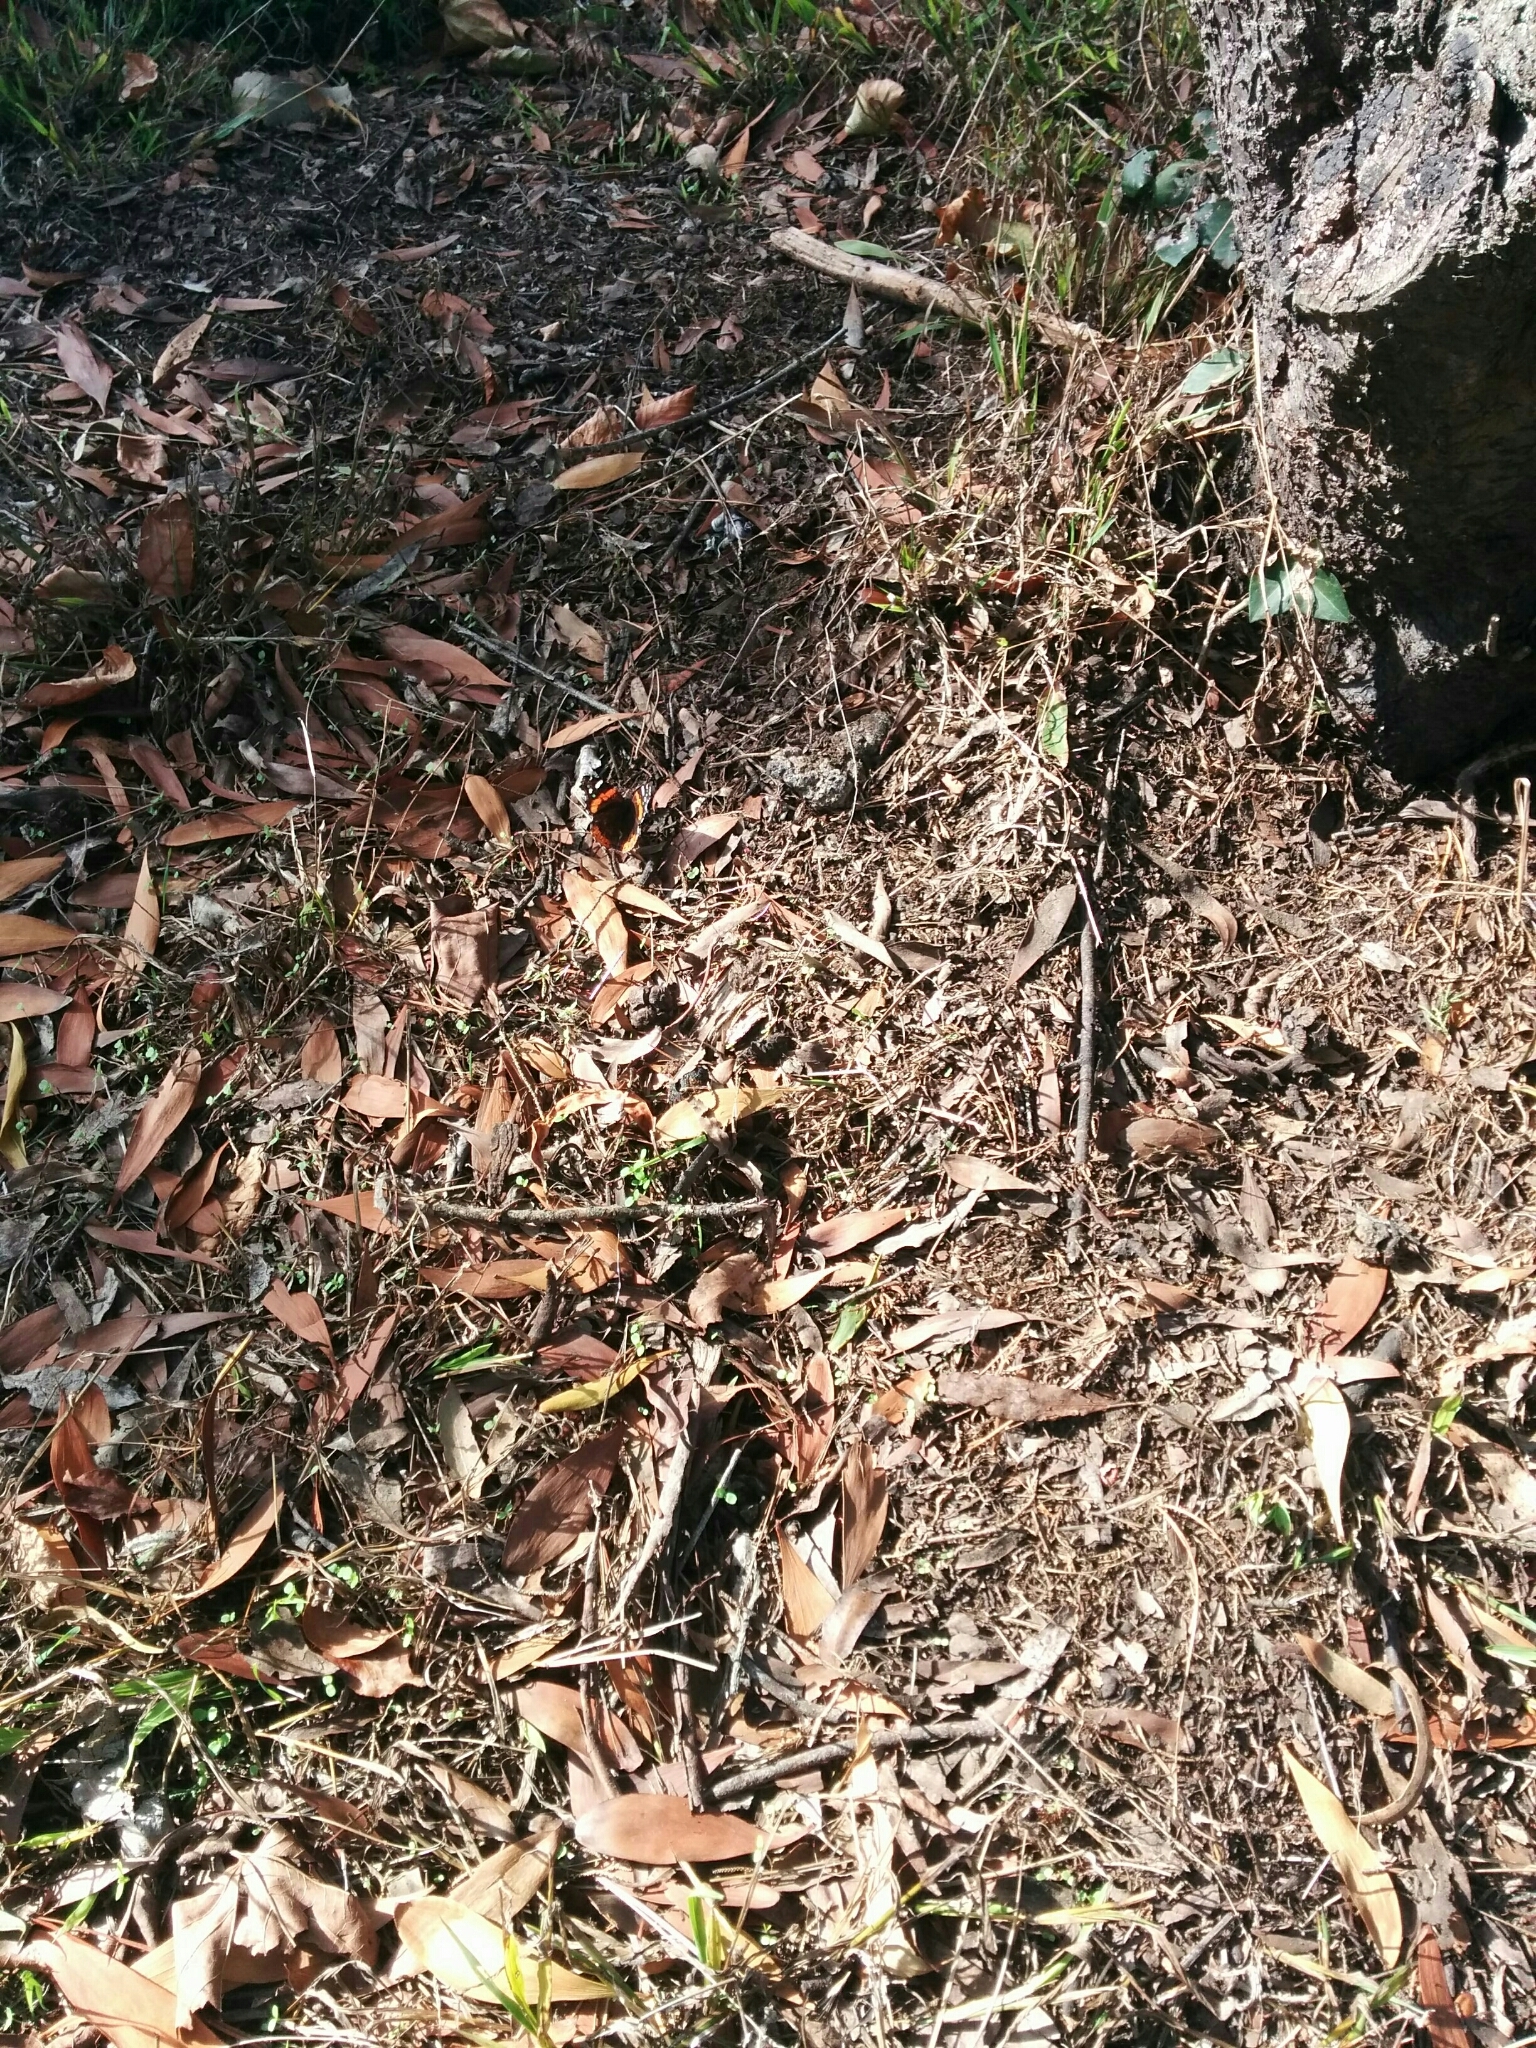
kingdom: Animalia
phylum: Arthropoda
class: Insecta
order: Lepidoptera
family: Nymphalidae
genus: Vanessa
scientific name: Vanessa atalanta
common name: Red admiral
